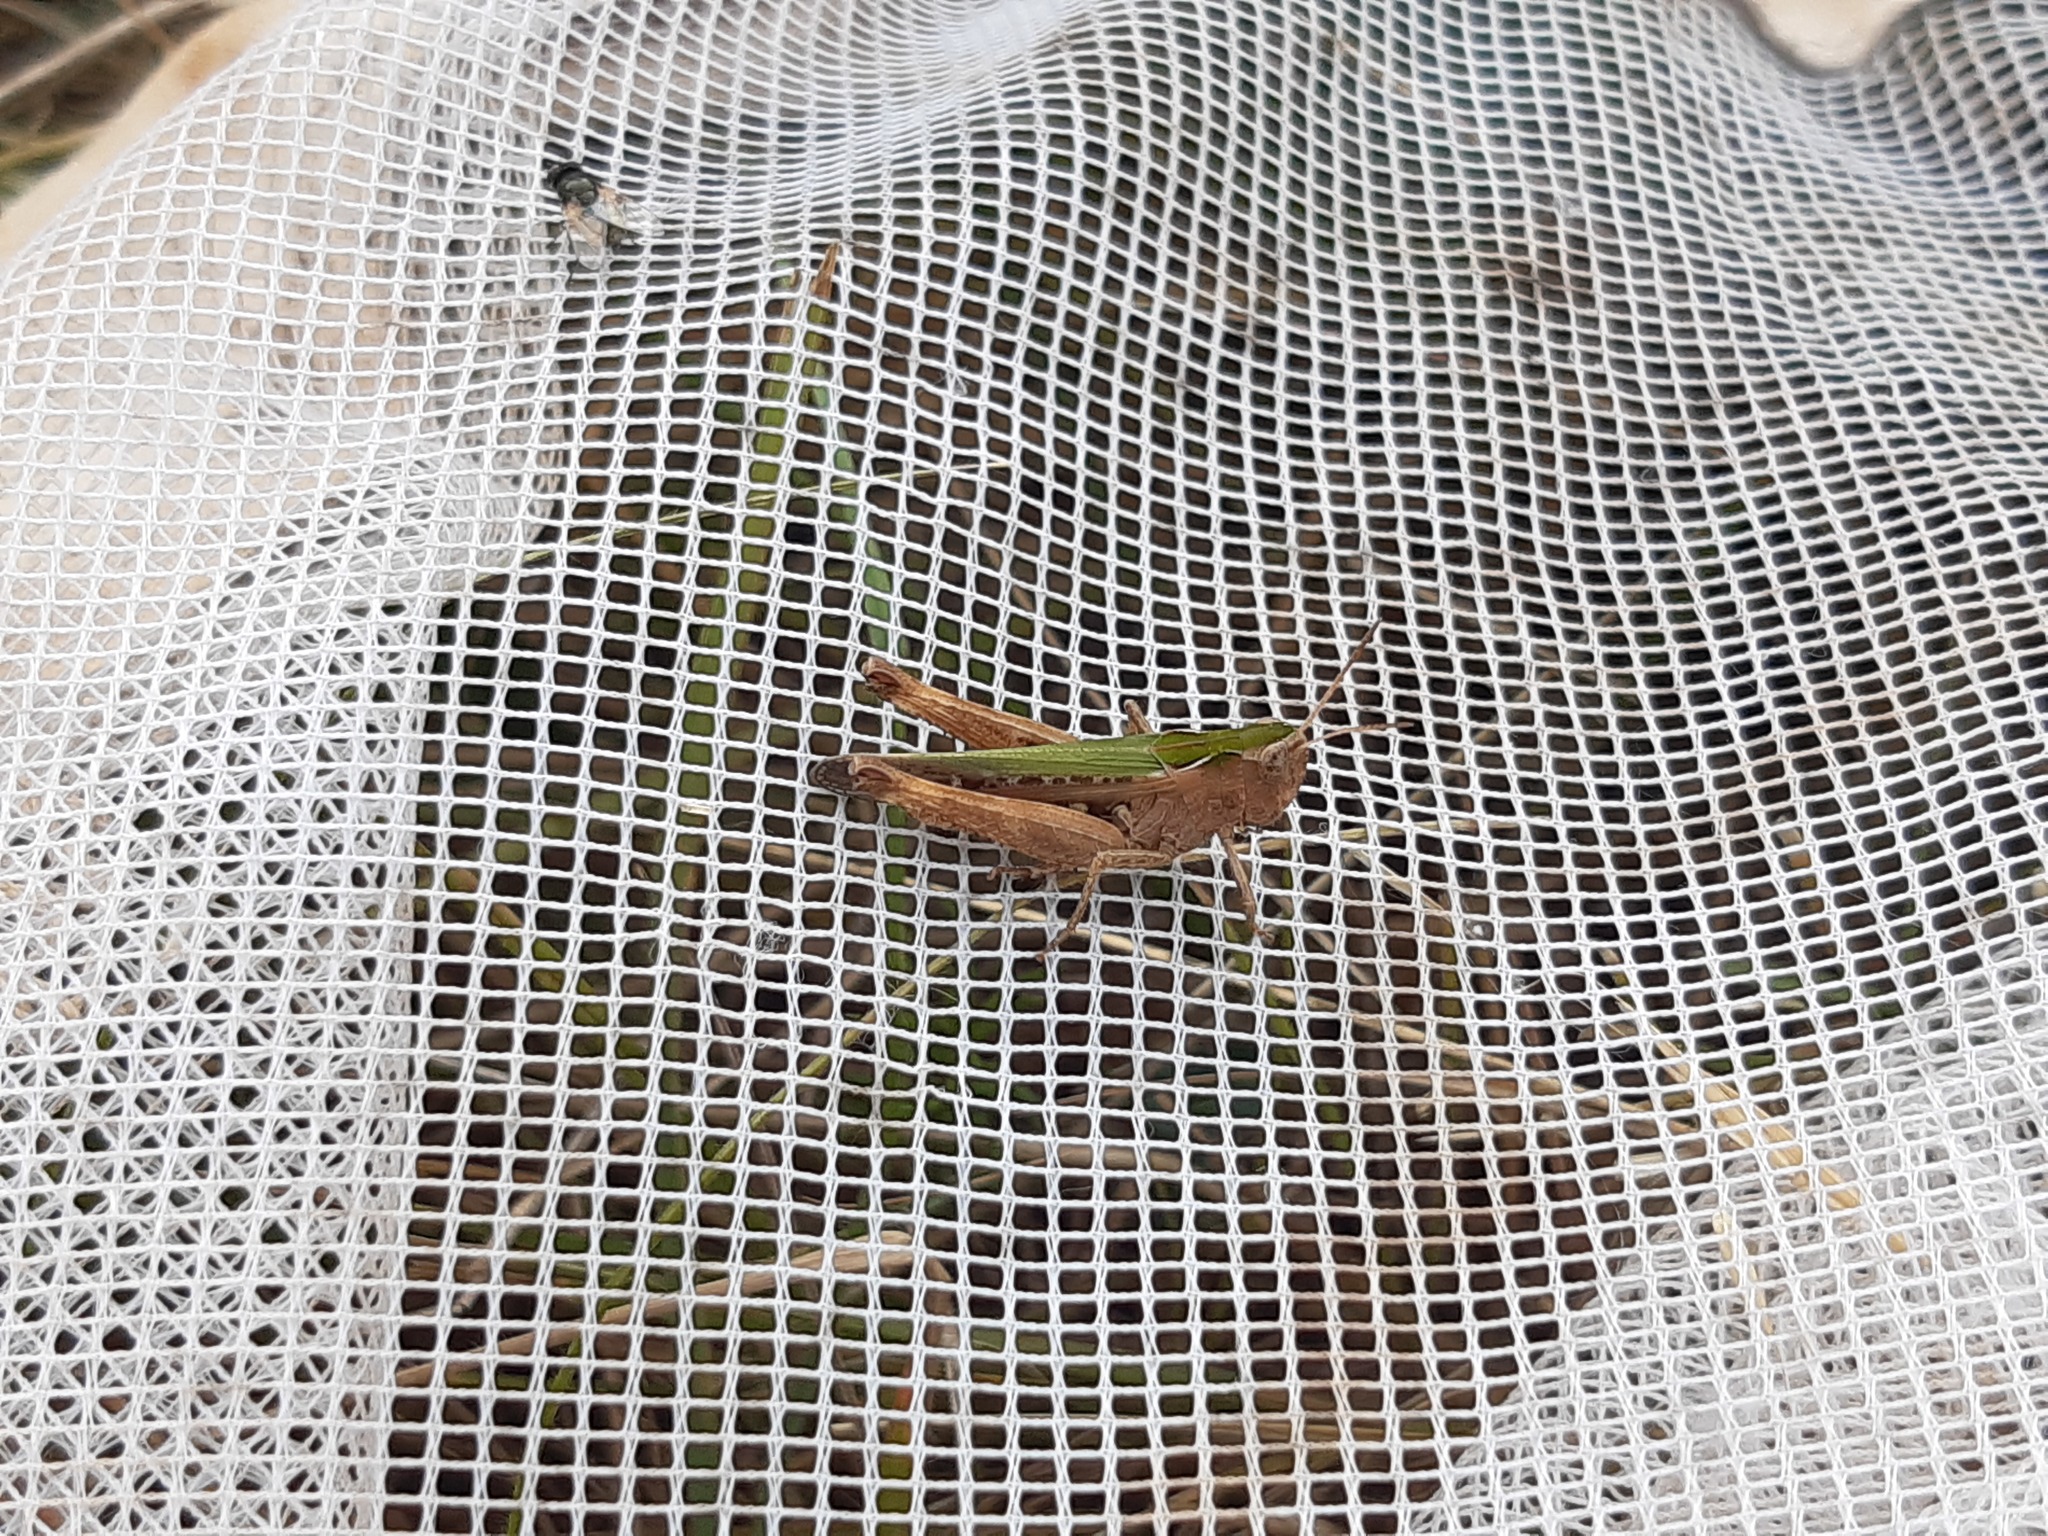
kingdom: Animalia
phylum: Arthropoda
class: Insecta
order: Orthoptera
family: Acrididae
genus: Omocestus
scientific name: Omocestus rufipes
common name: Woodland grasshopper
